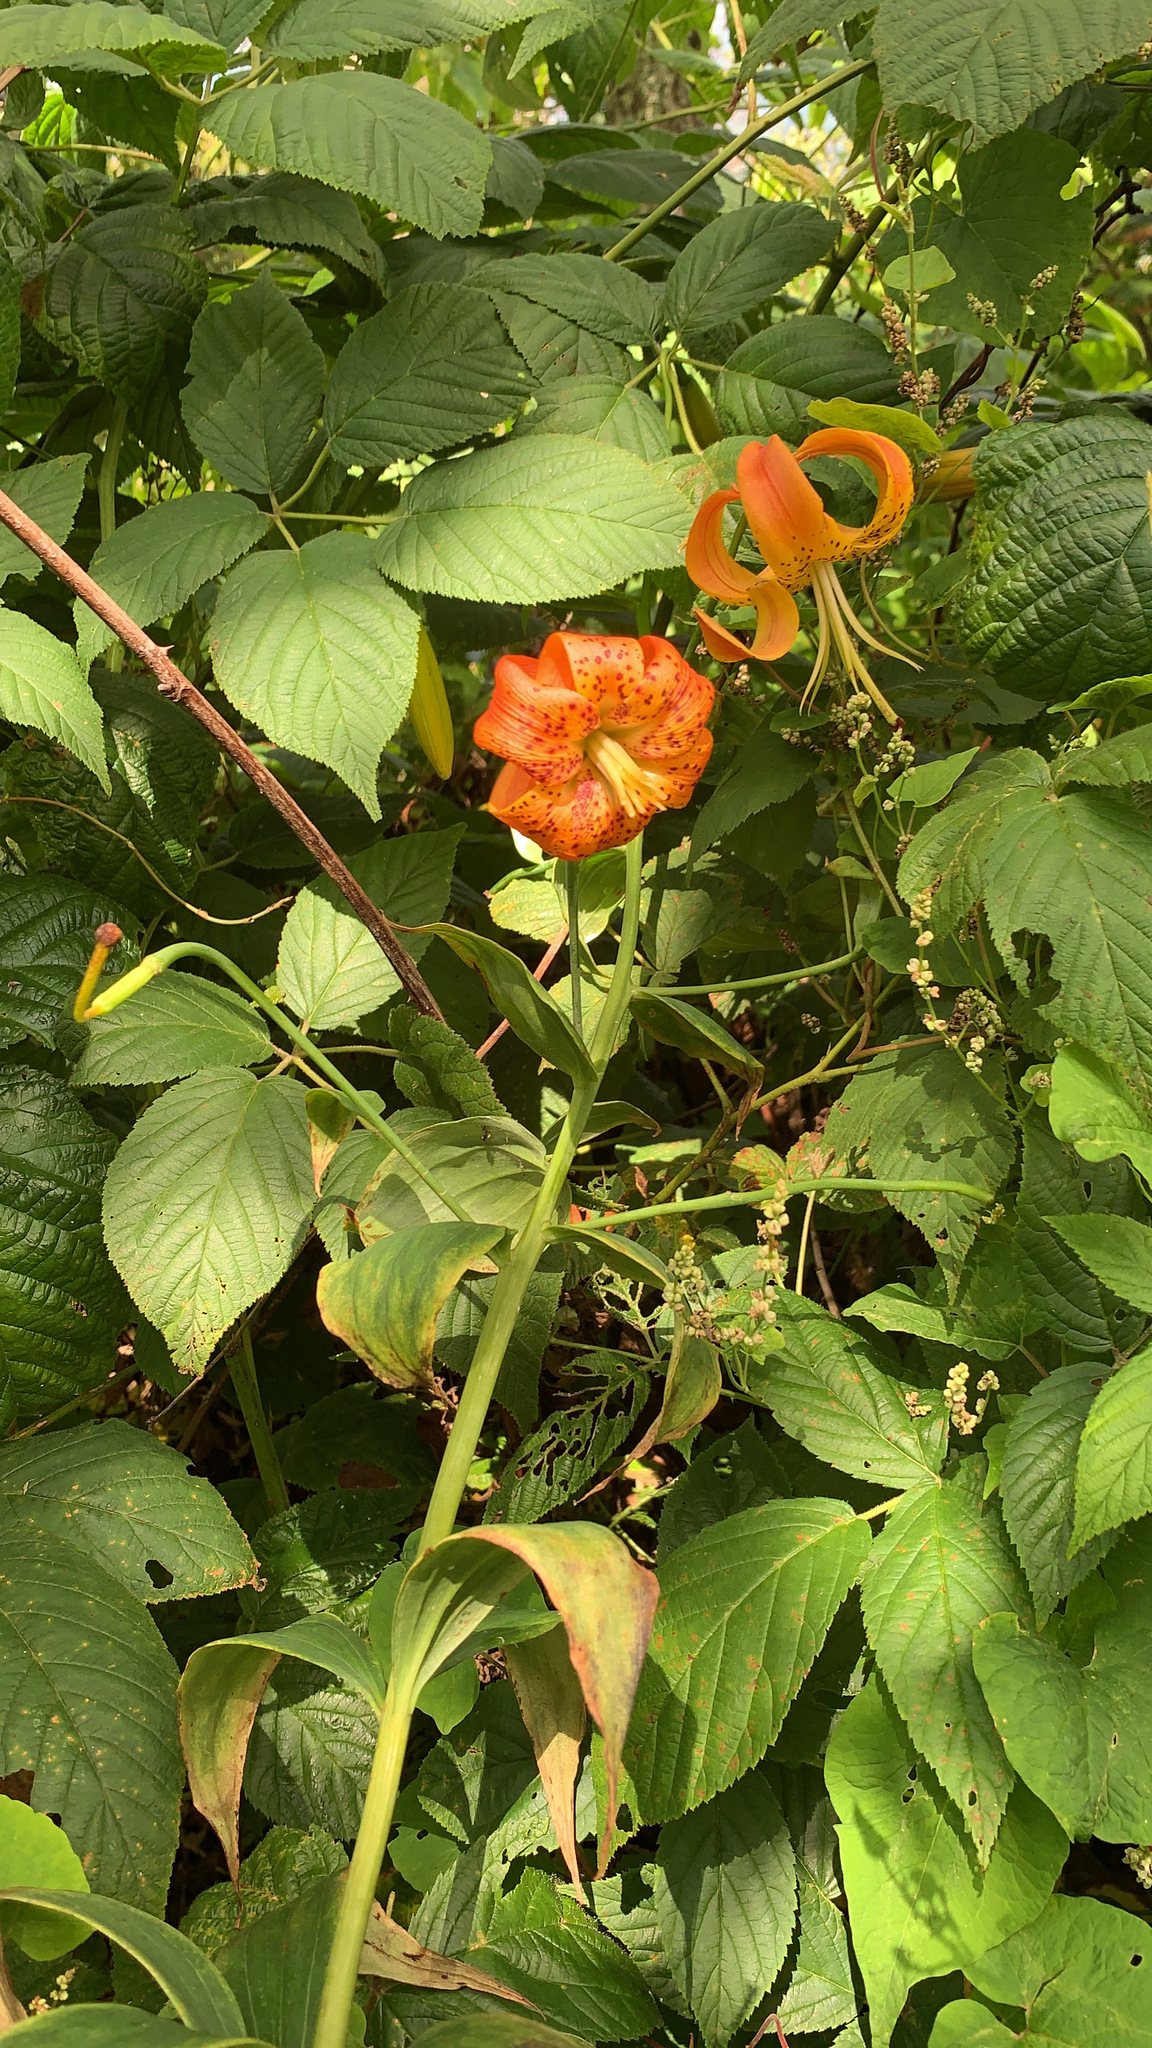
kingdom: Plantae
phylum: Tracheophyta
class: Liliopsida
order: Liliales
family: Liliaceae
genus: Lilium
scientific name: Lilium superbum
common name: American turk's-cap lily
